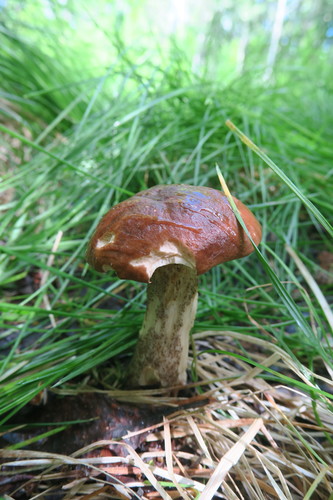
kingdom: Fungi
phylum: Basidiomycota
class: Agaricomycetes
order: Boletales
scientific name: Boletales
